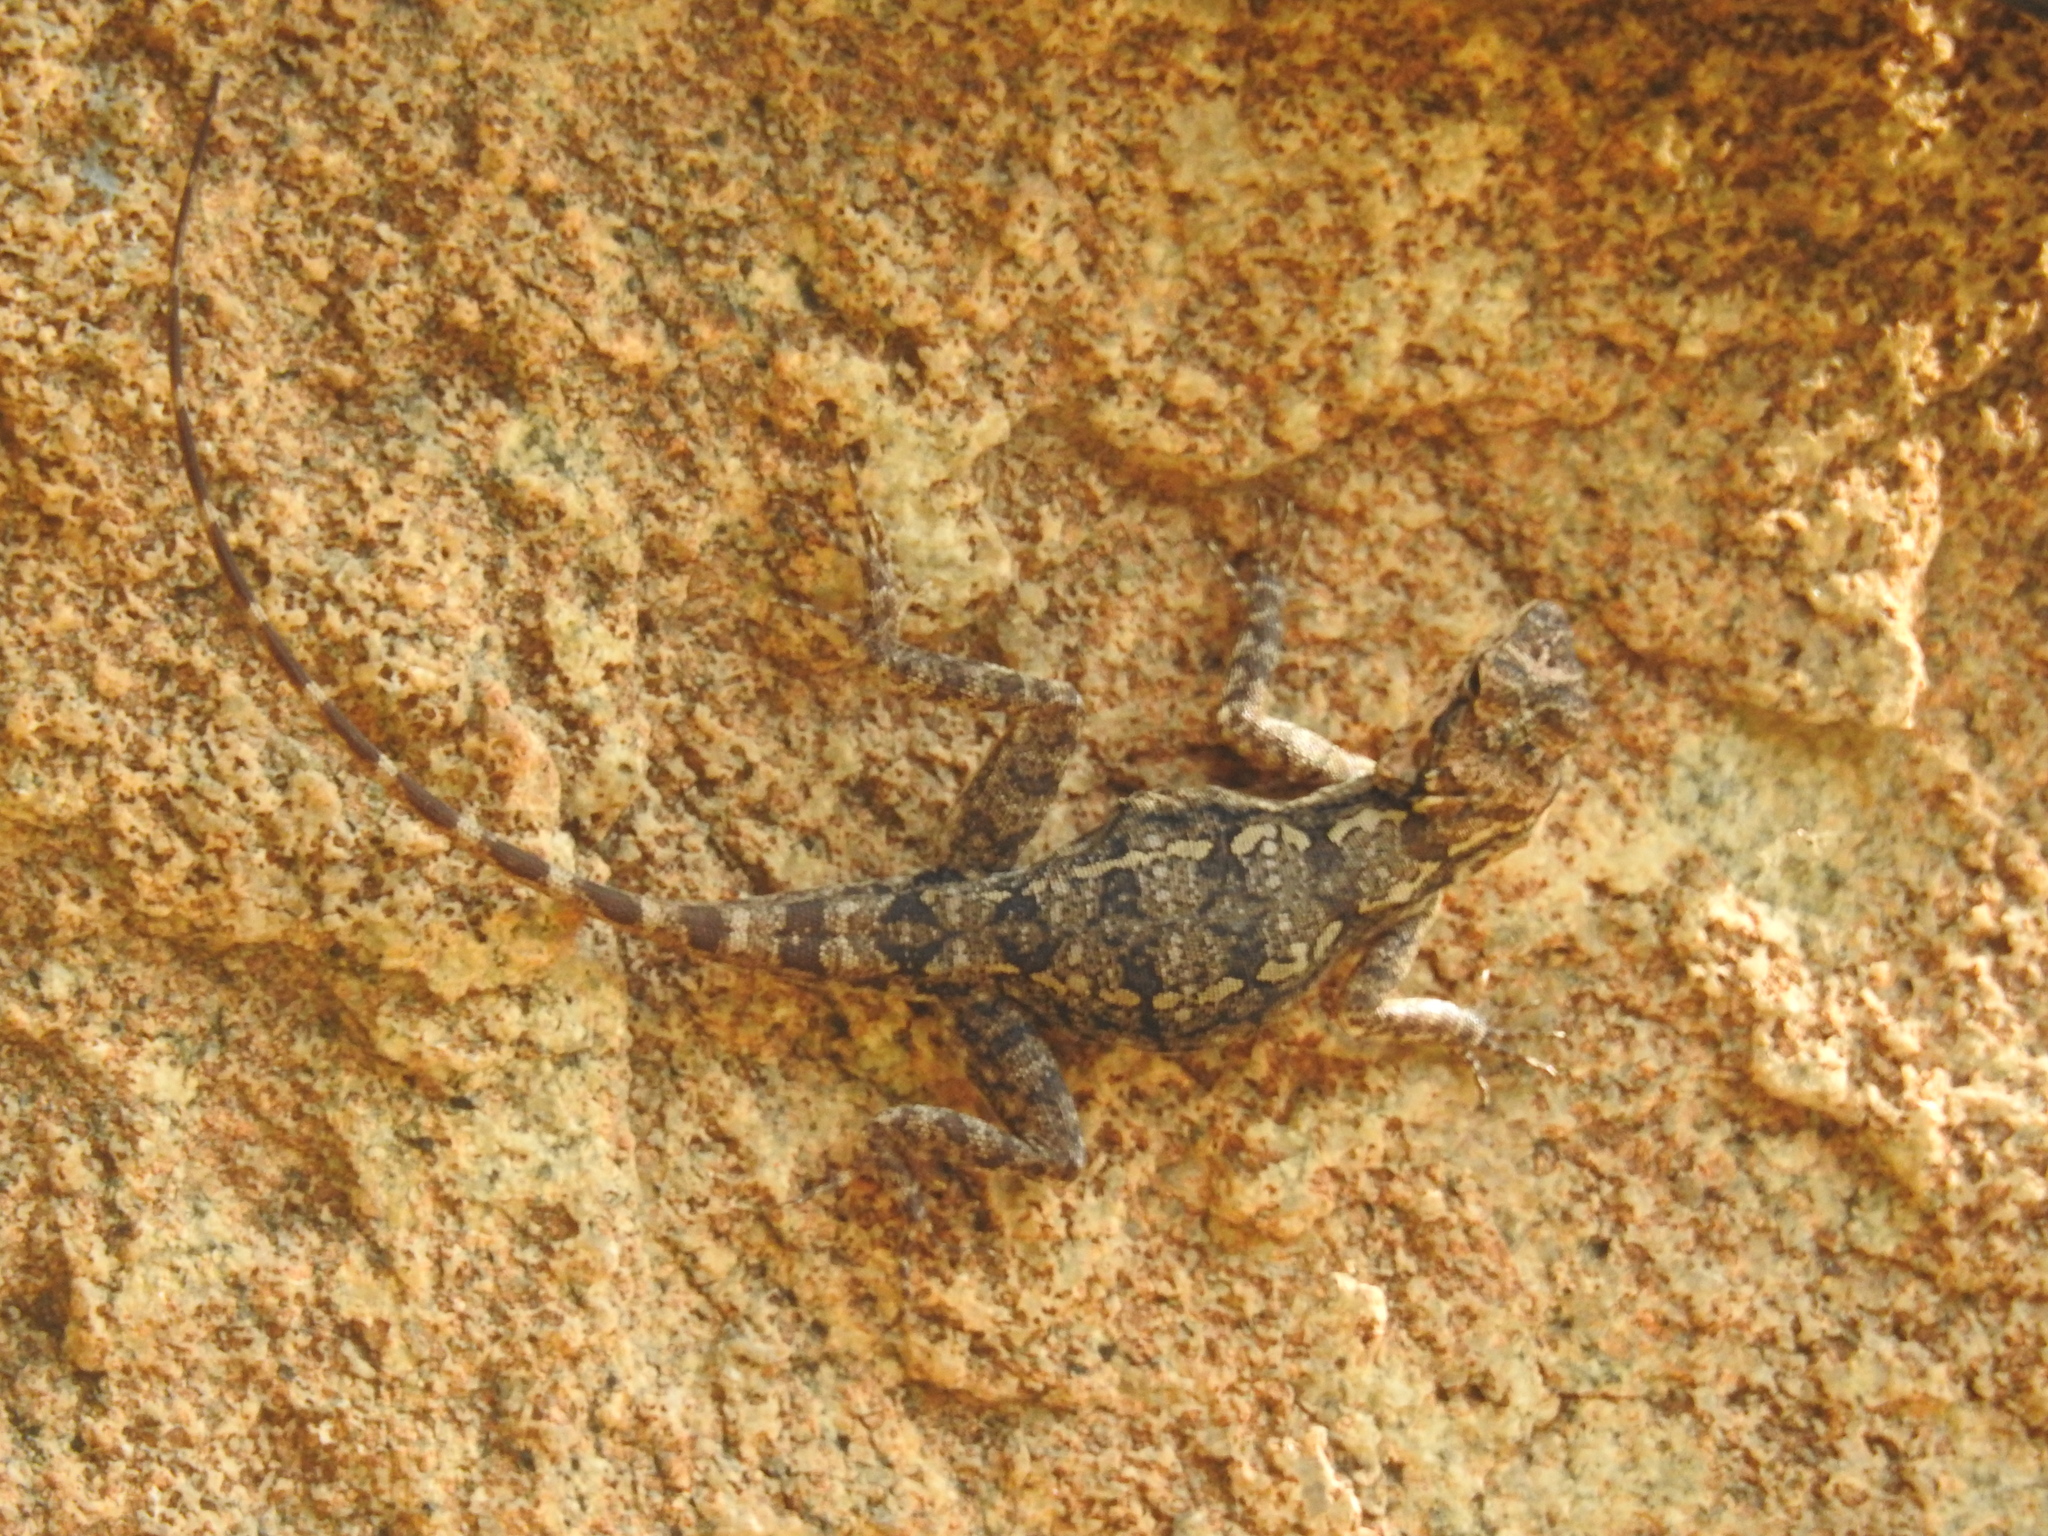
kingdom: Animalia
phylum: Chordata
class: Squamata
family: Agamidae
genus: Psammophilus
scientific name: Psammophilus dorsalis
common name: South indian rock agama
